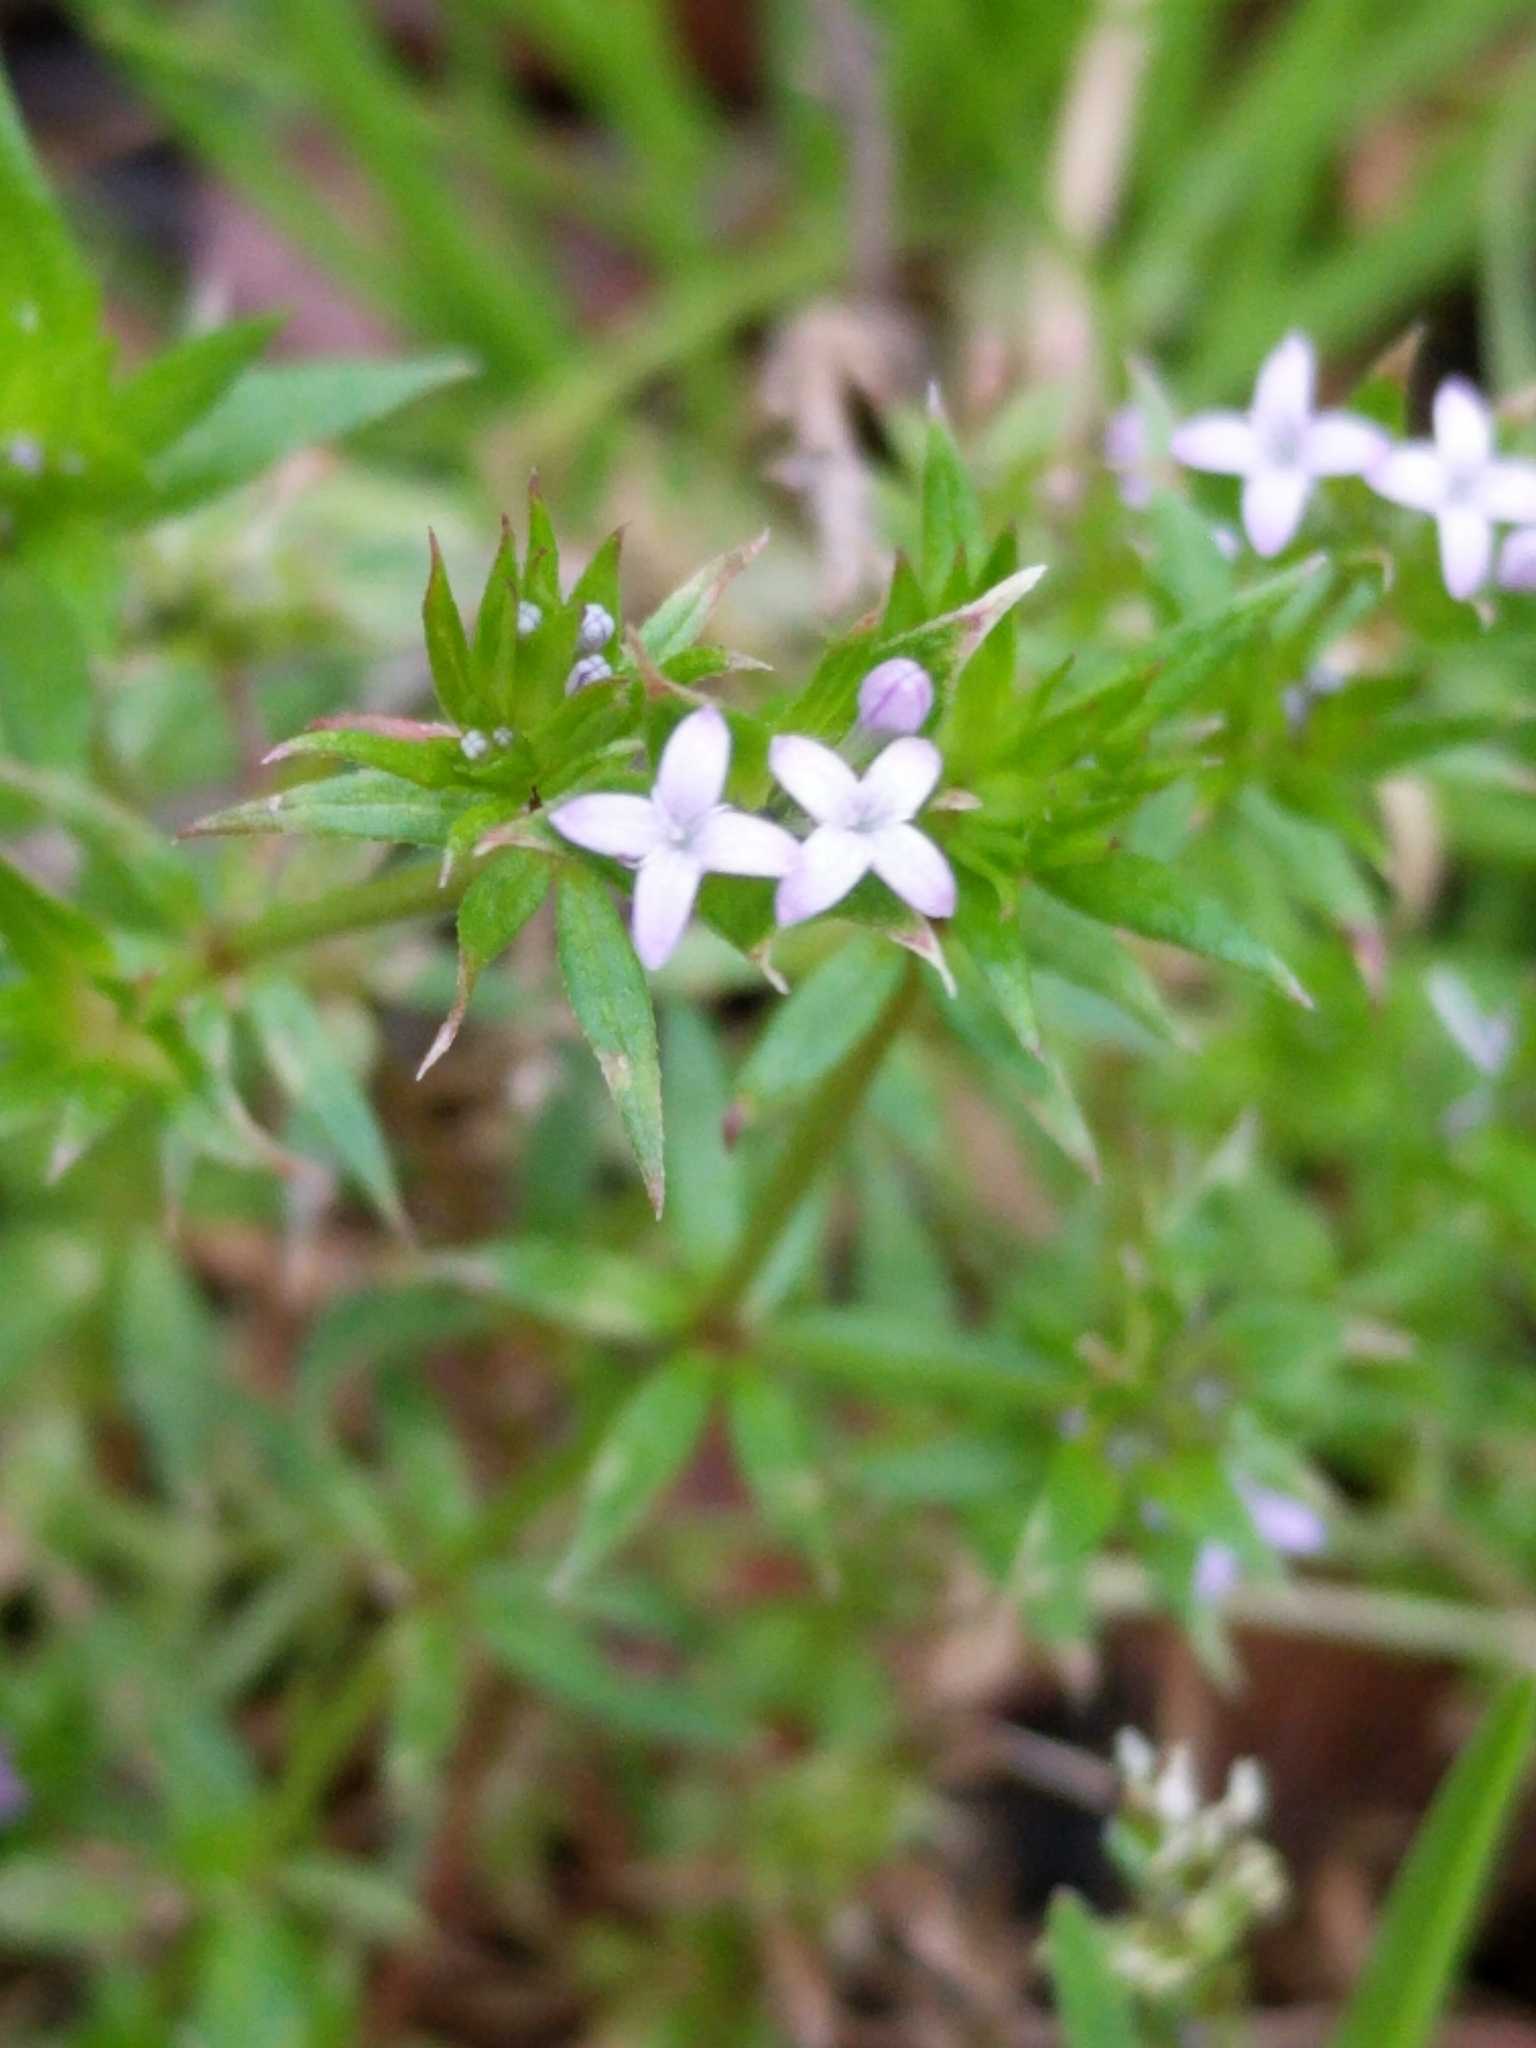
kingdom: Plantae
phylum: Tracheophyta
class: Magnoliopsida
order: Gentianales
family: Rubiaceae
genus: Sherardia
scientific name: Sherardia arvensis
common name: Field madder
